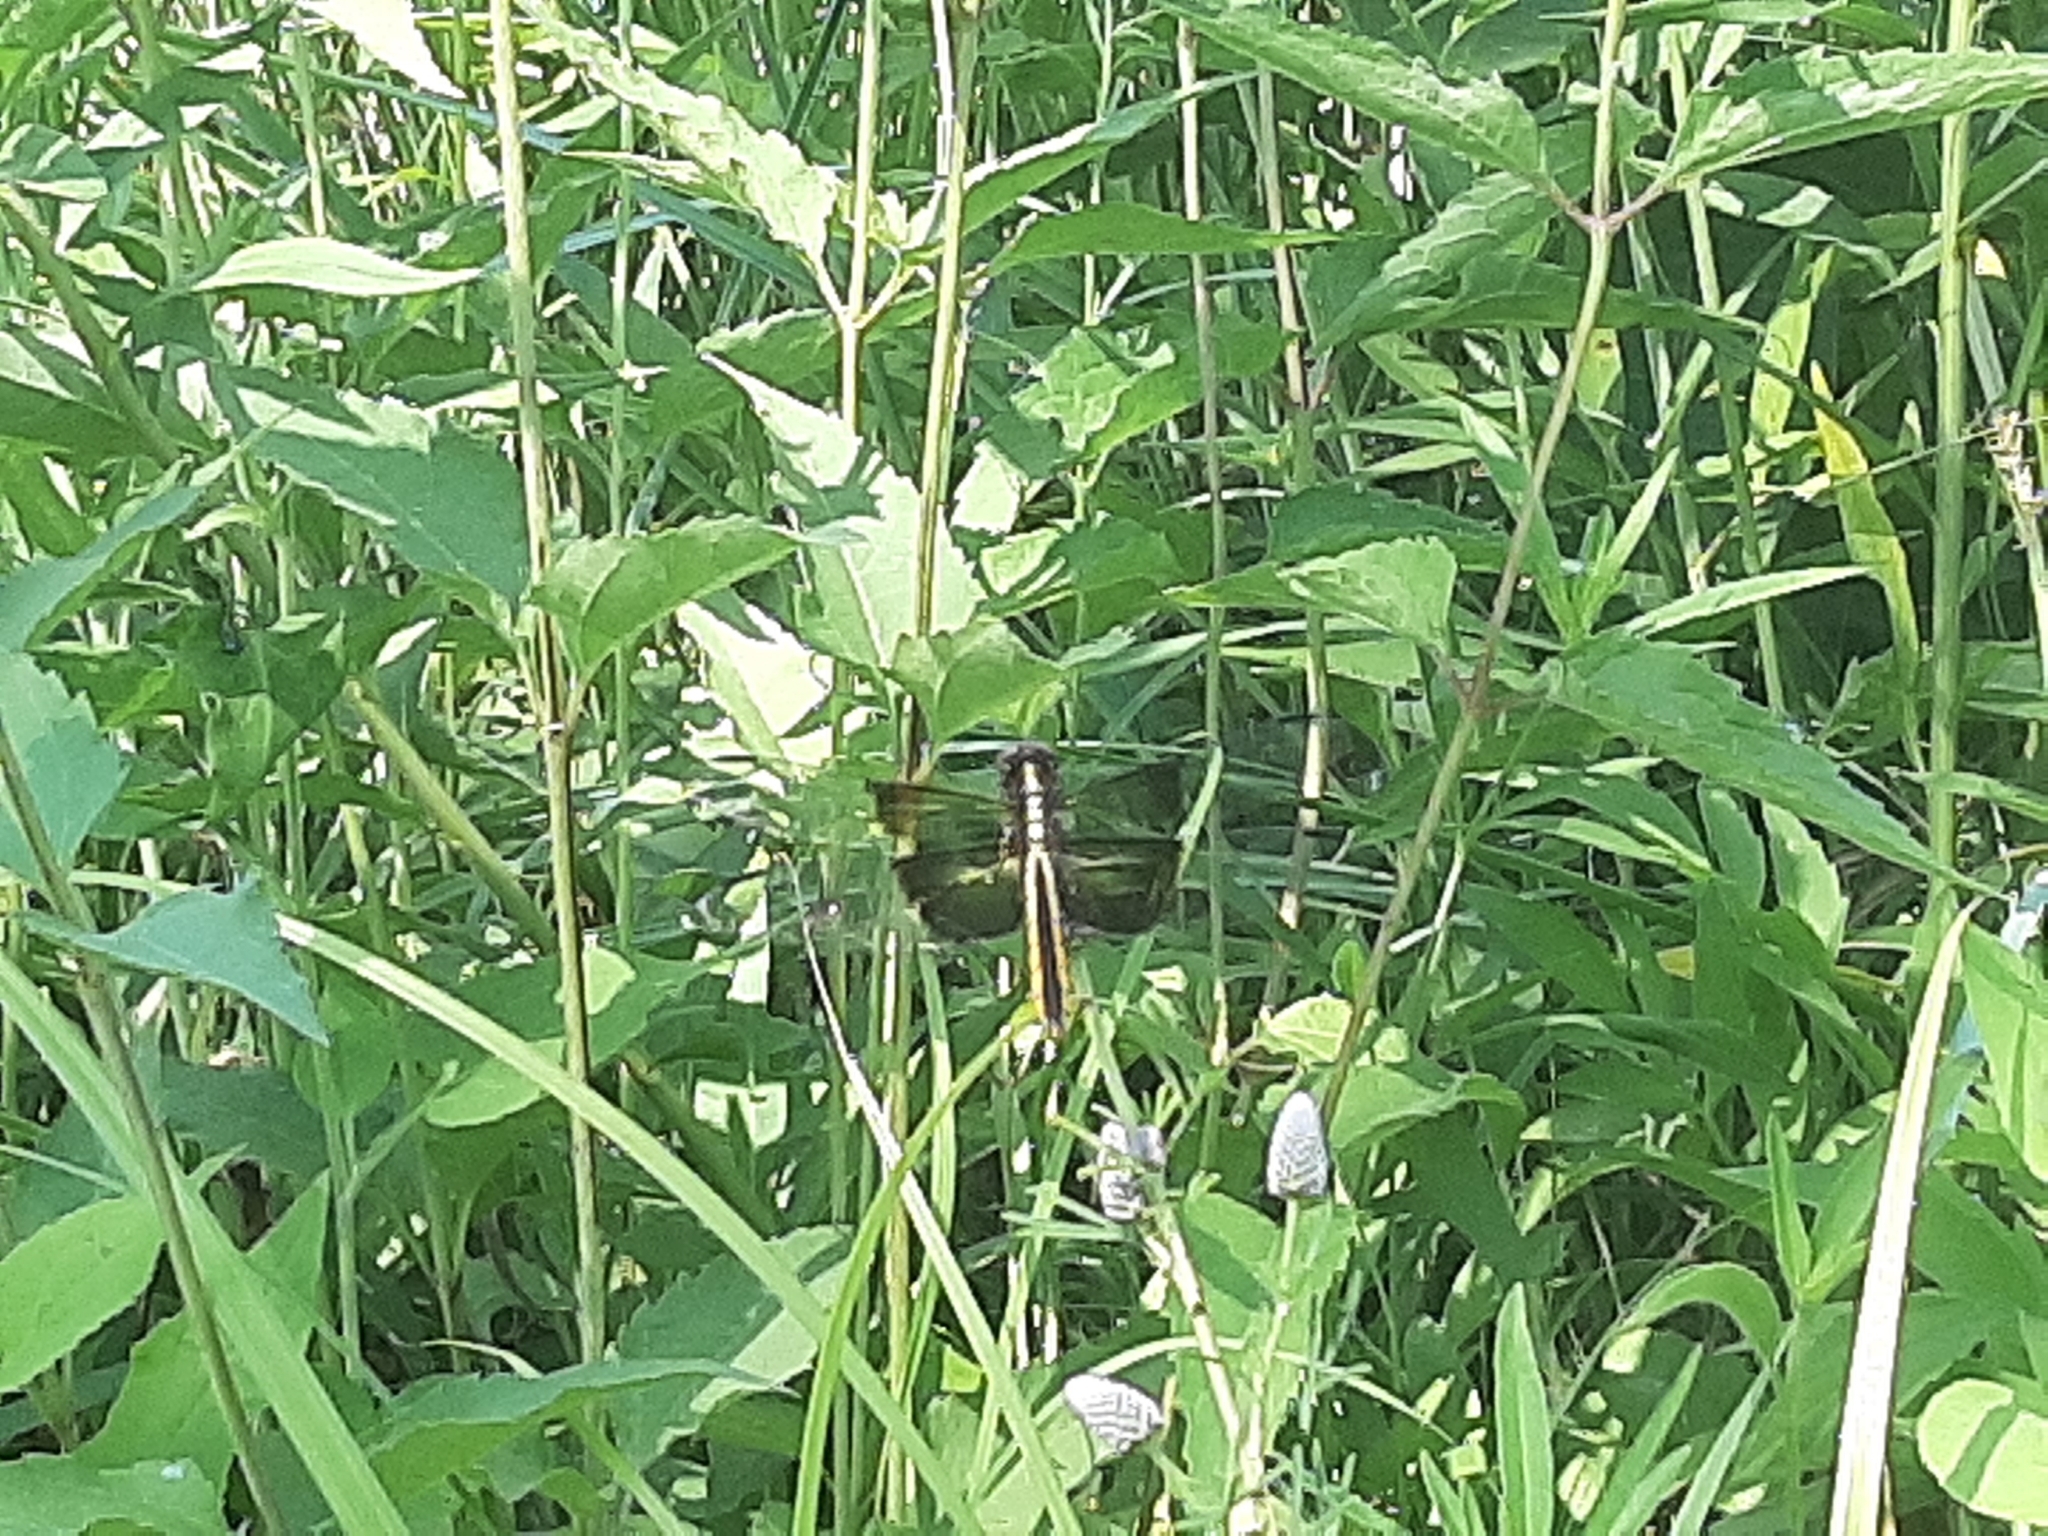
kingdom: Animalia
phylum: Arthropoda
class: Insecta
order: Odonata
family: Libellulidae
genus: Libellula
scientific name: Libellula luctuosa
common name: Widow skimmer
